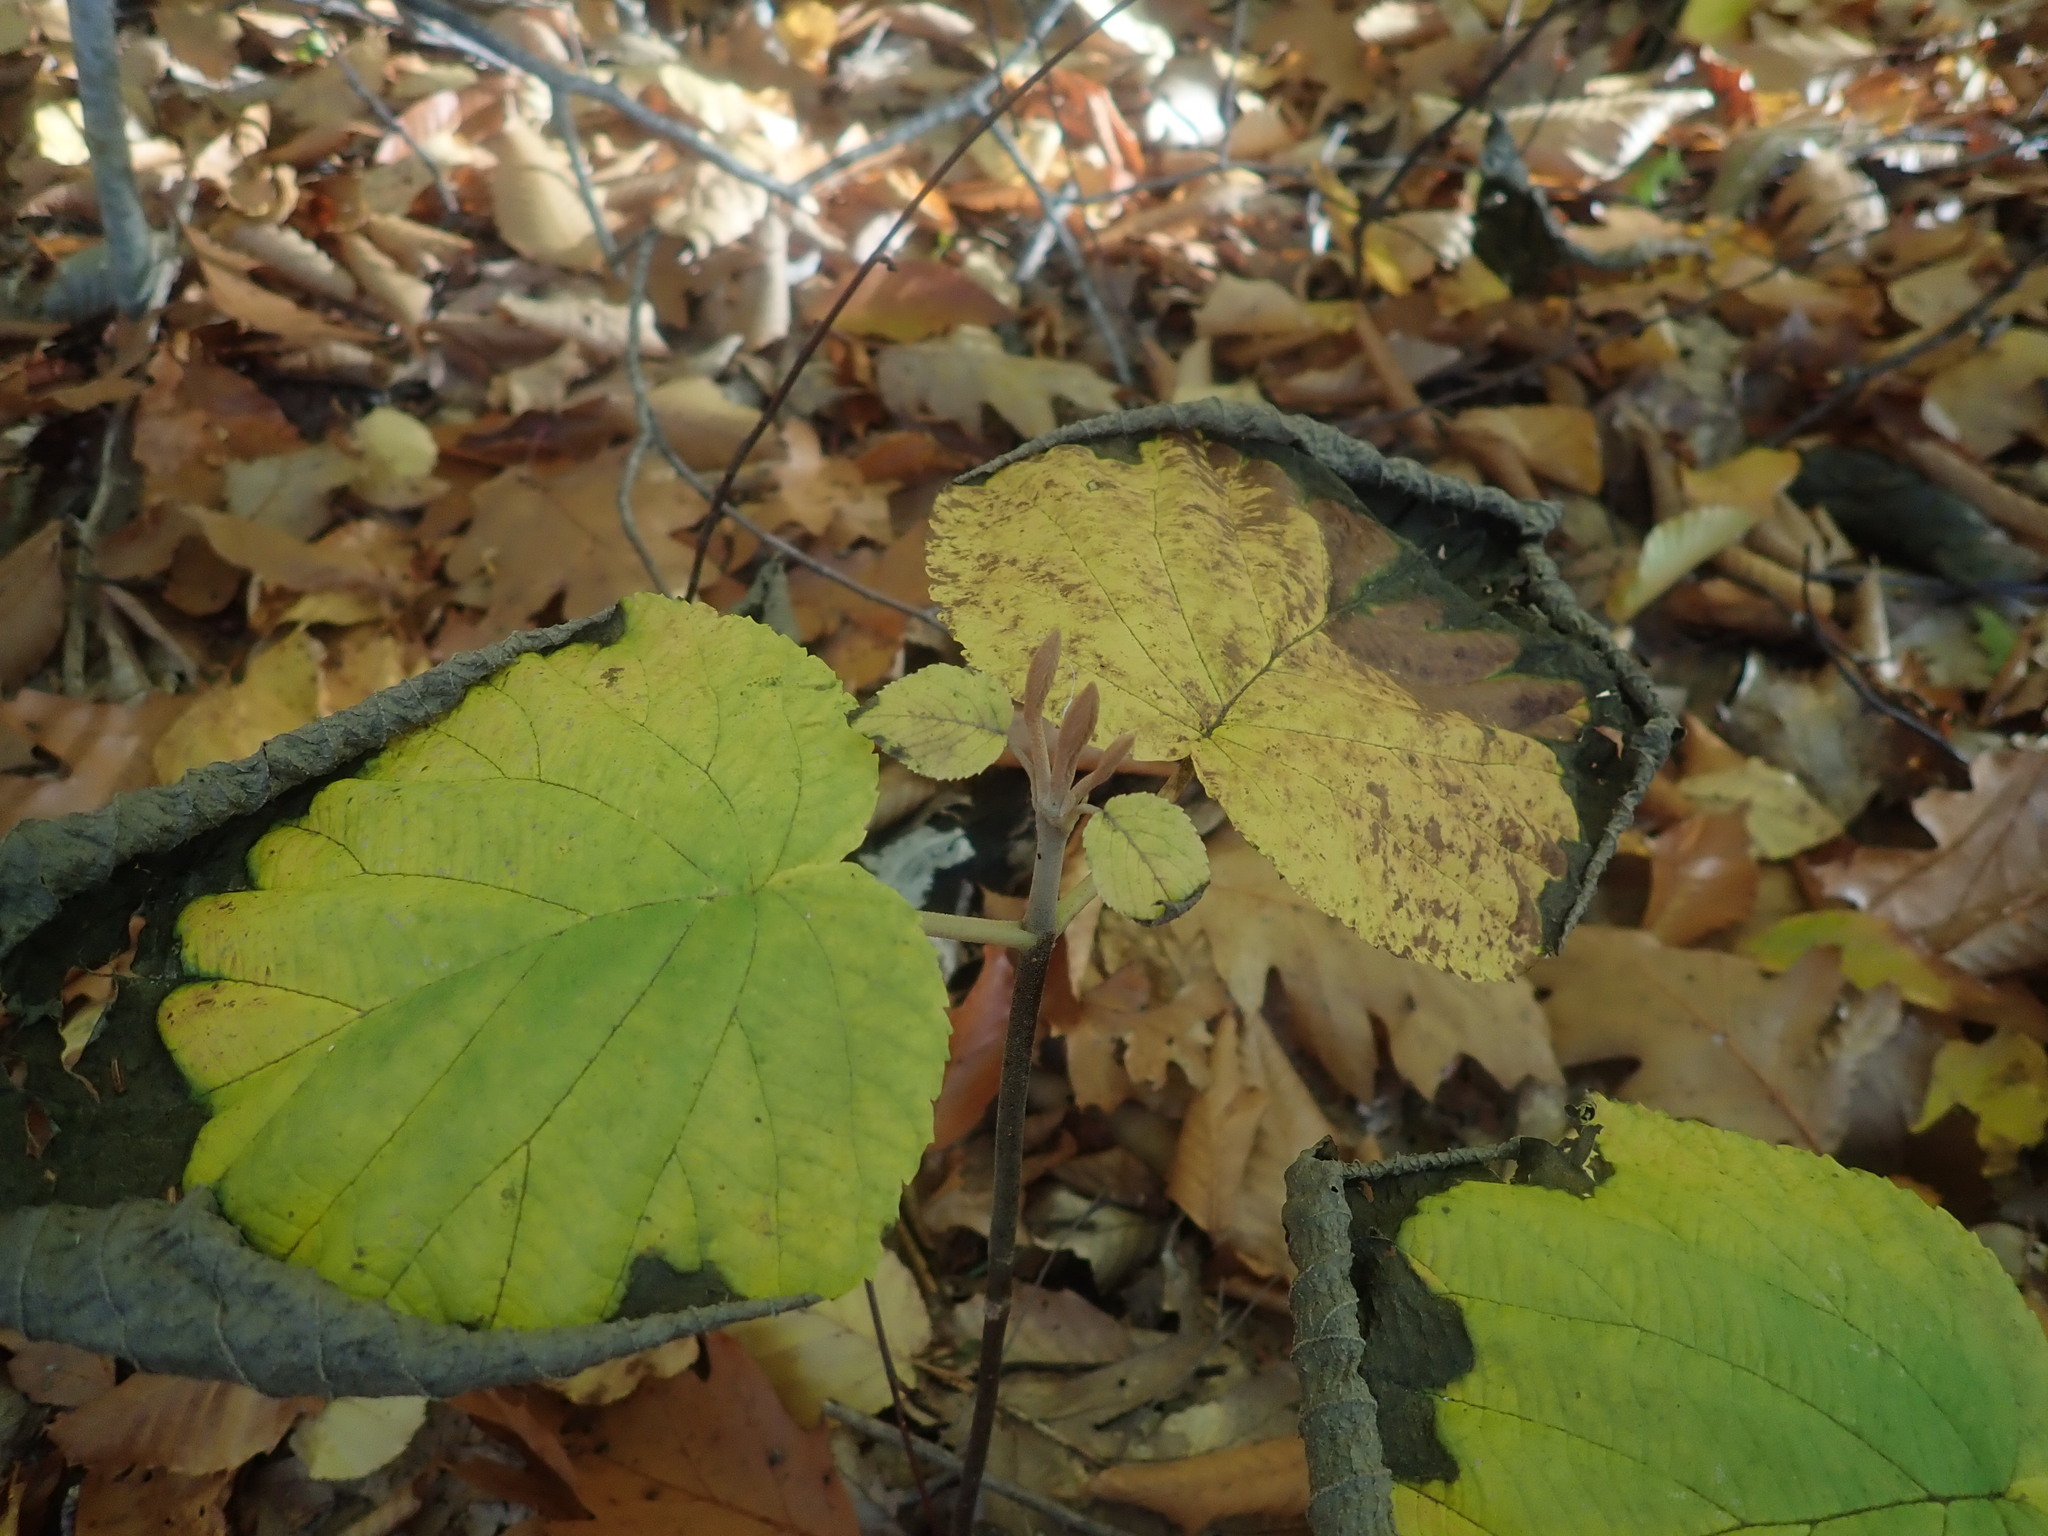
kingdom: Plantae
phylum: Tracheophyta
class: Magnoliopsida
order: Dipsacales
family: Viburnaceae
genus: Viburnum
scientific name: Viburnum lantanoides
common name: Hobblebush
